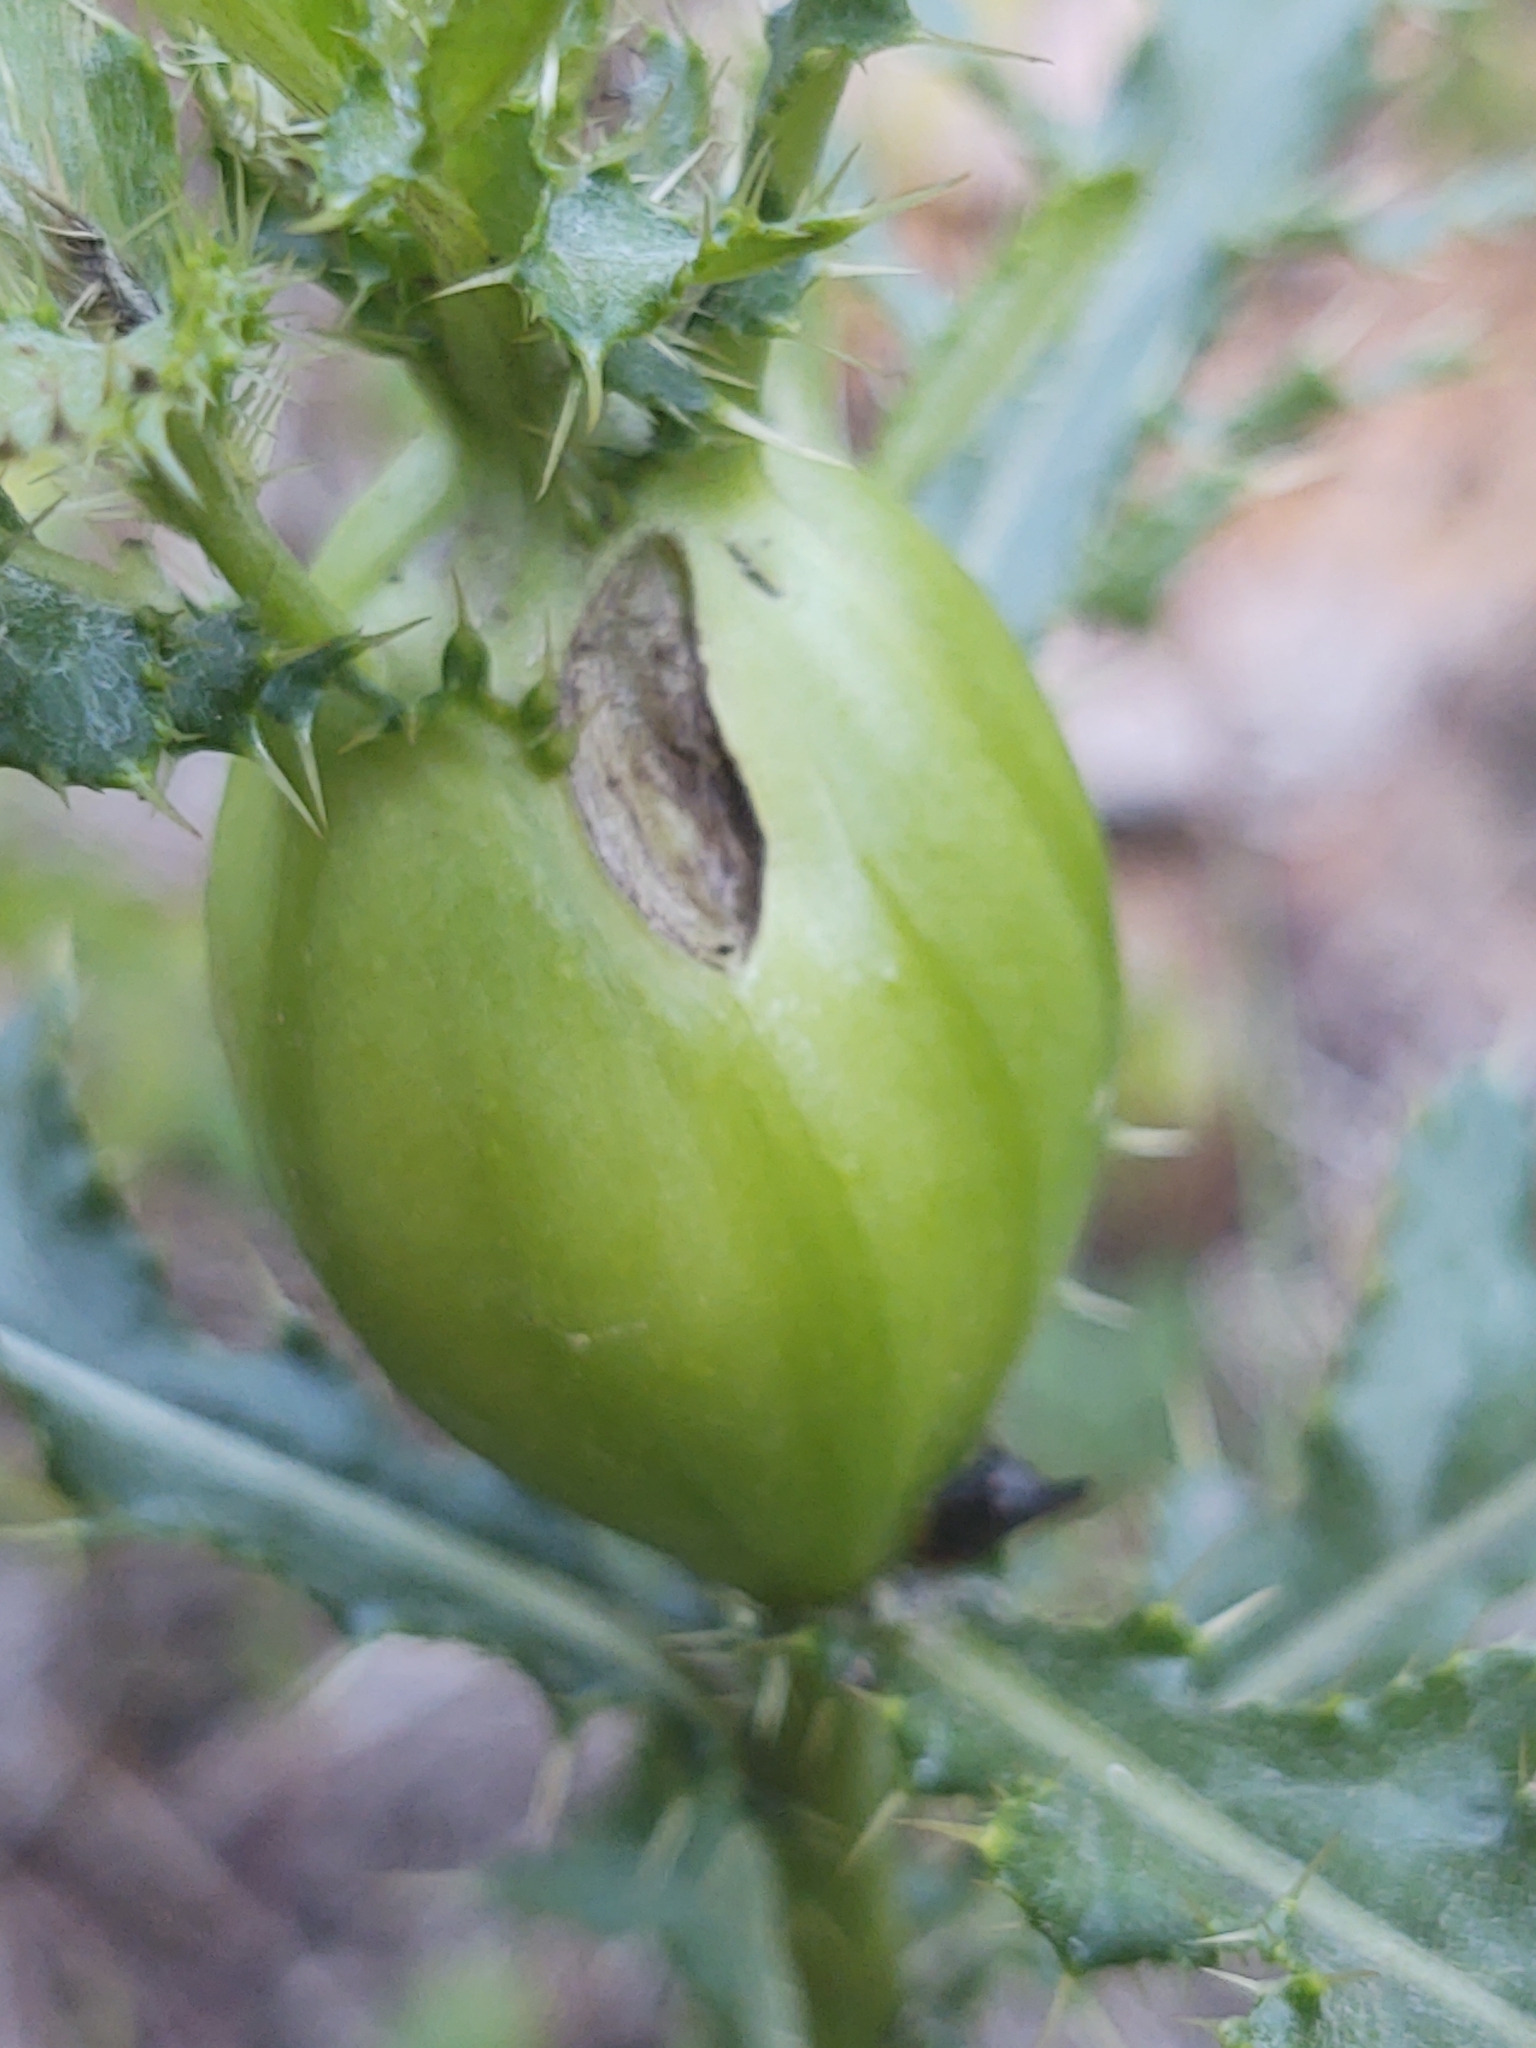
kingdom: Animalia
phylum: Arthropoda
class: Insecta
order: Diptera
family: Tephritidae
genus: Urophora
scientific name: Urophora cardui
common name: Fruit fly
